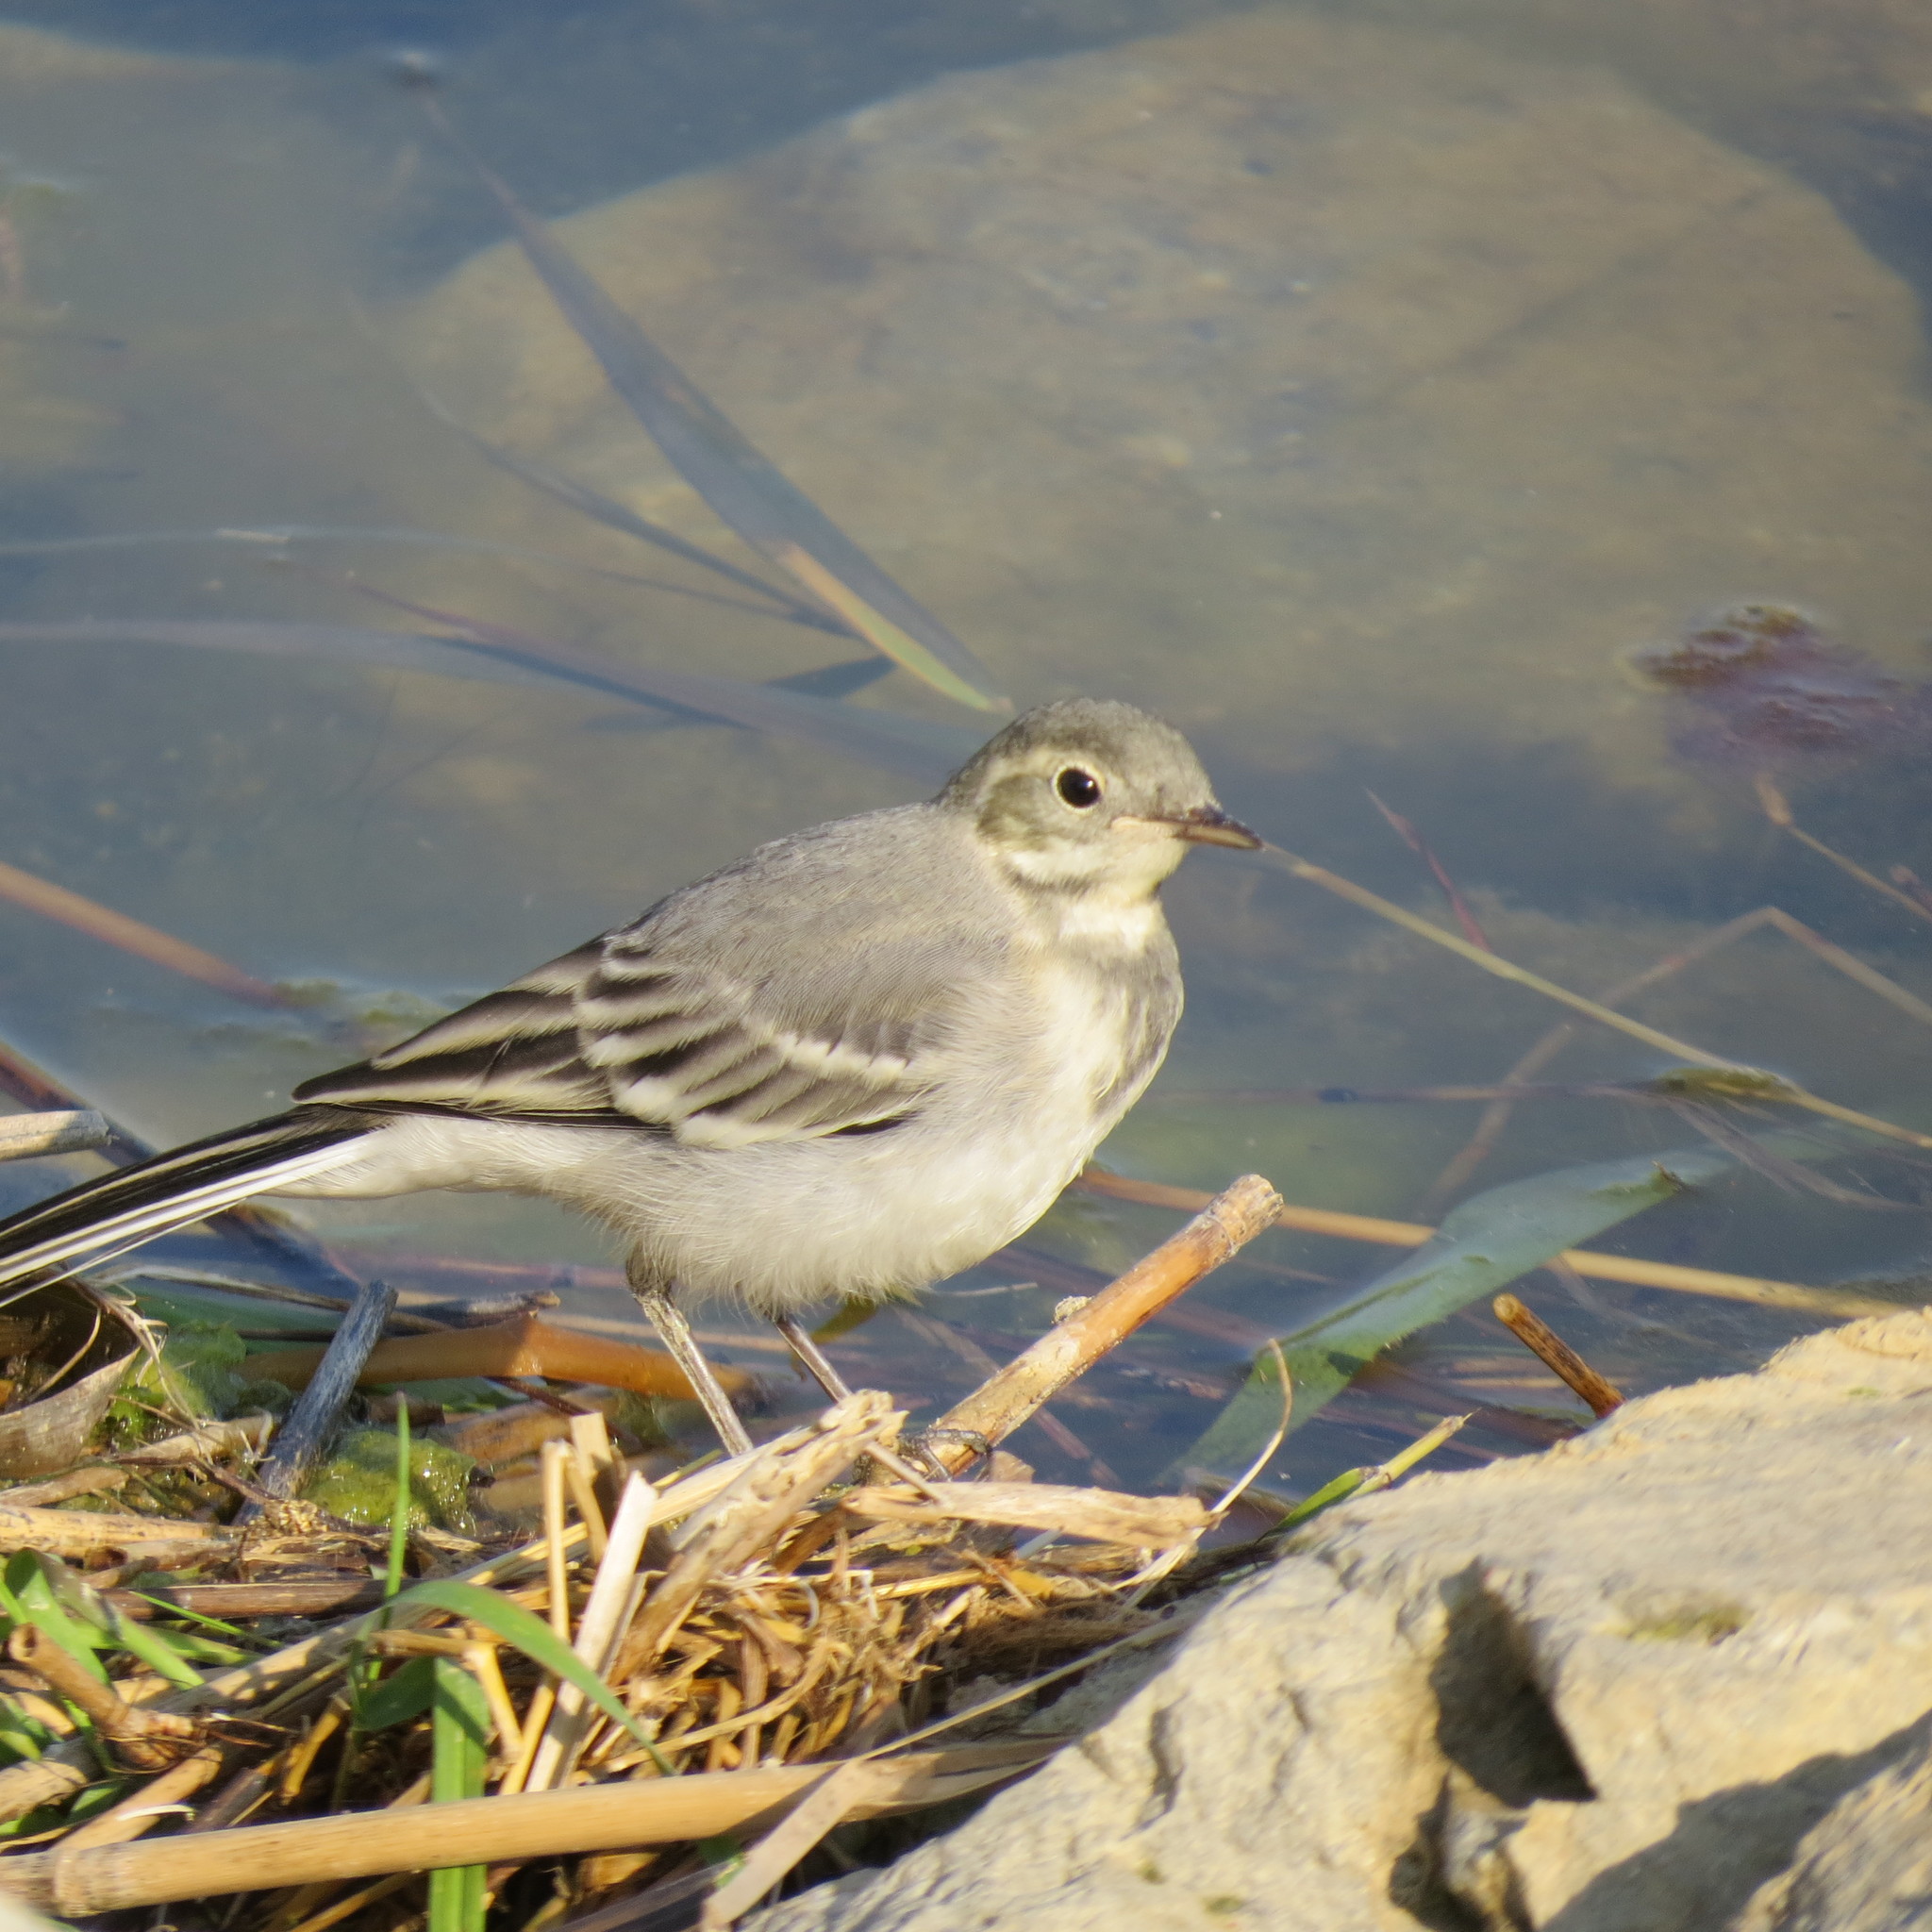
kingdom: Animalia
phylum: Chordata
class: Aves
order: Passeriformes
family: Motacillidae
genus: Motacilla
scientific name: Motacilla alba
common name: White wagtail
